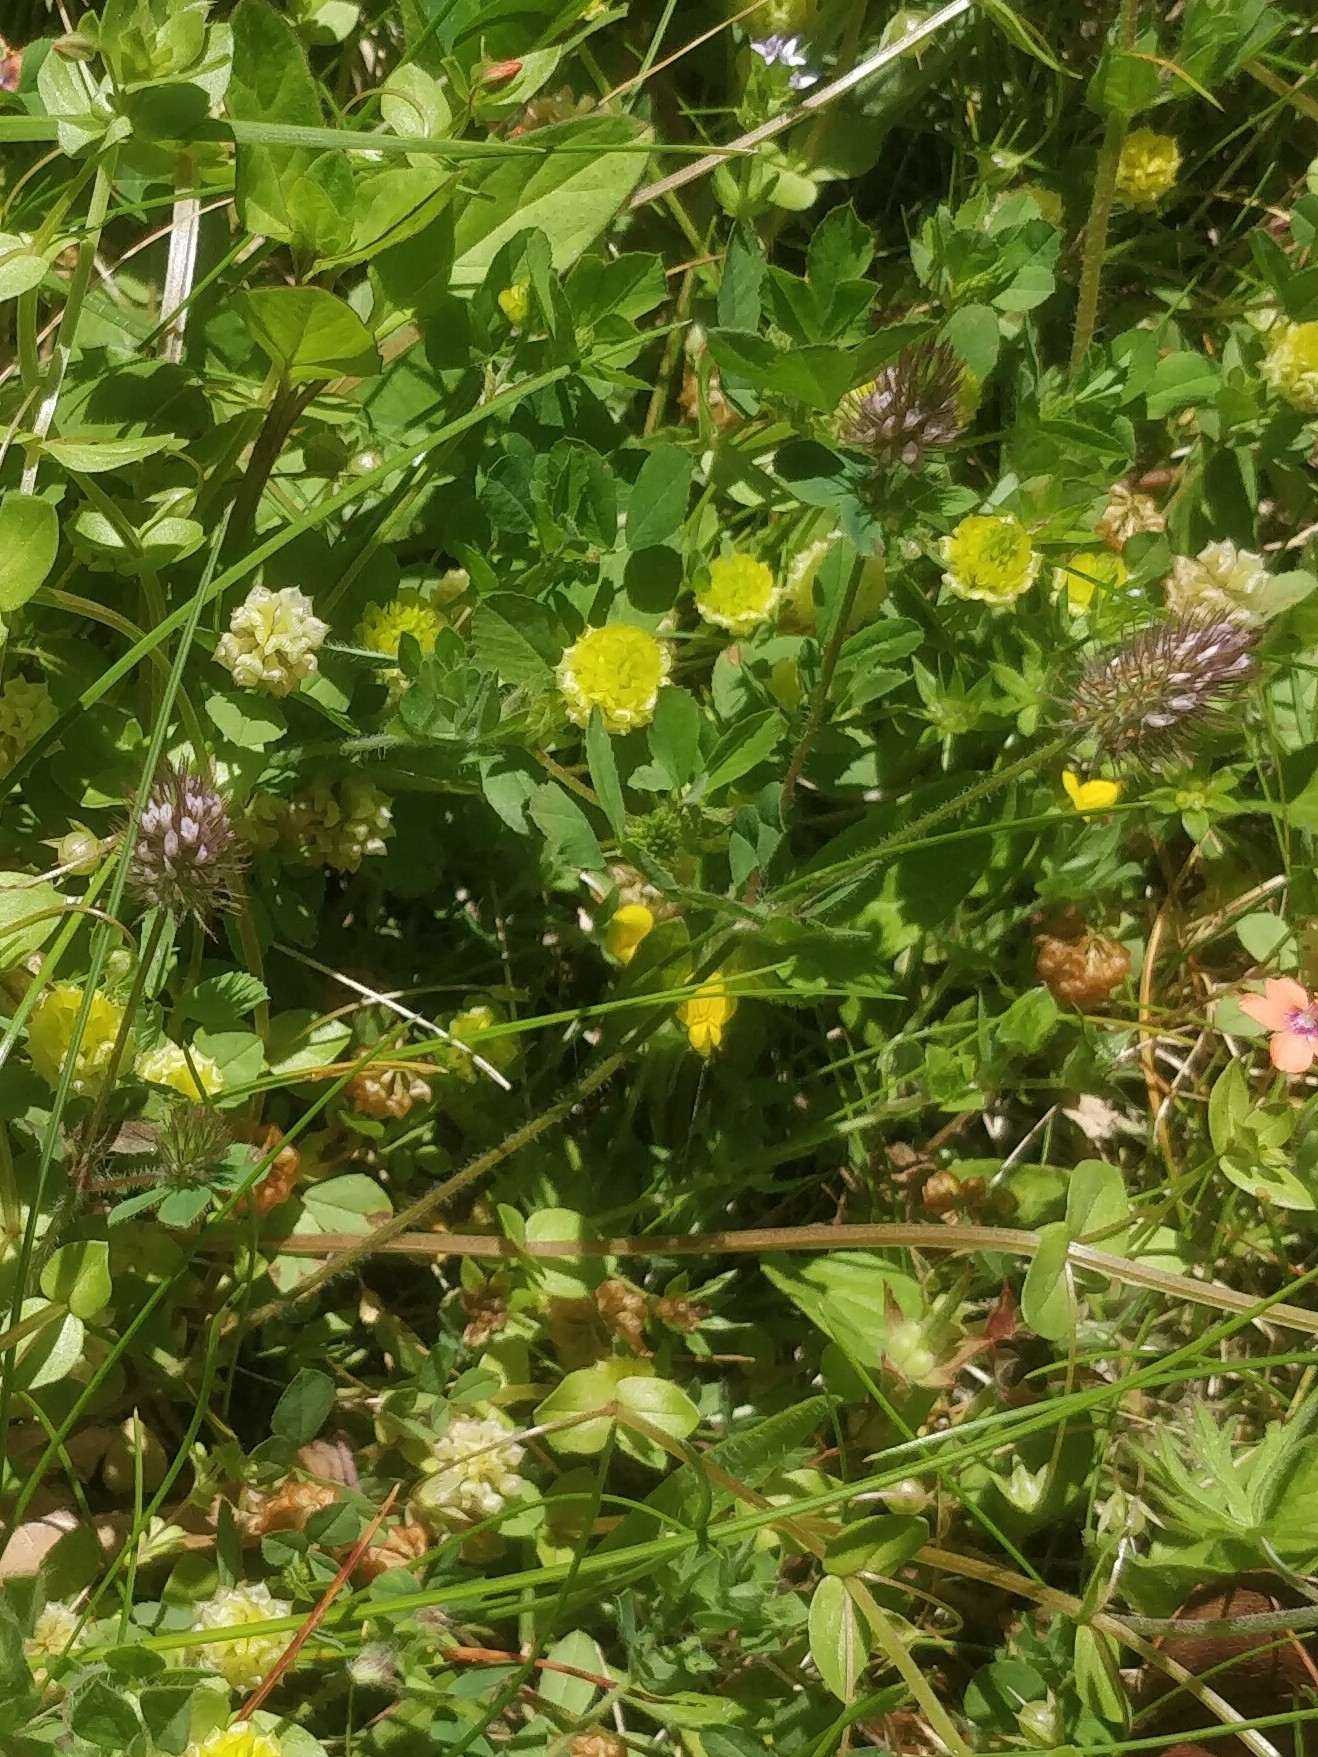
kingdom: Plantae
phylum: Tracheophyta
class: Magnoliopsida
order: Fabales
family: Fabaceae
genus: Trifolium
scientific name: Trifolium ligusticum
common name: Ligurian clover
